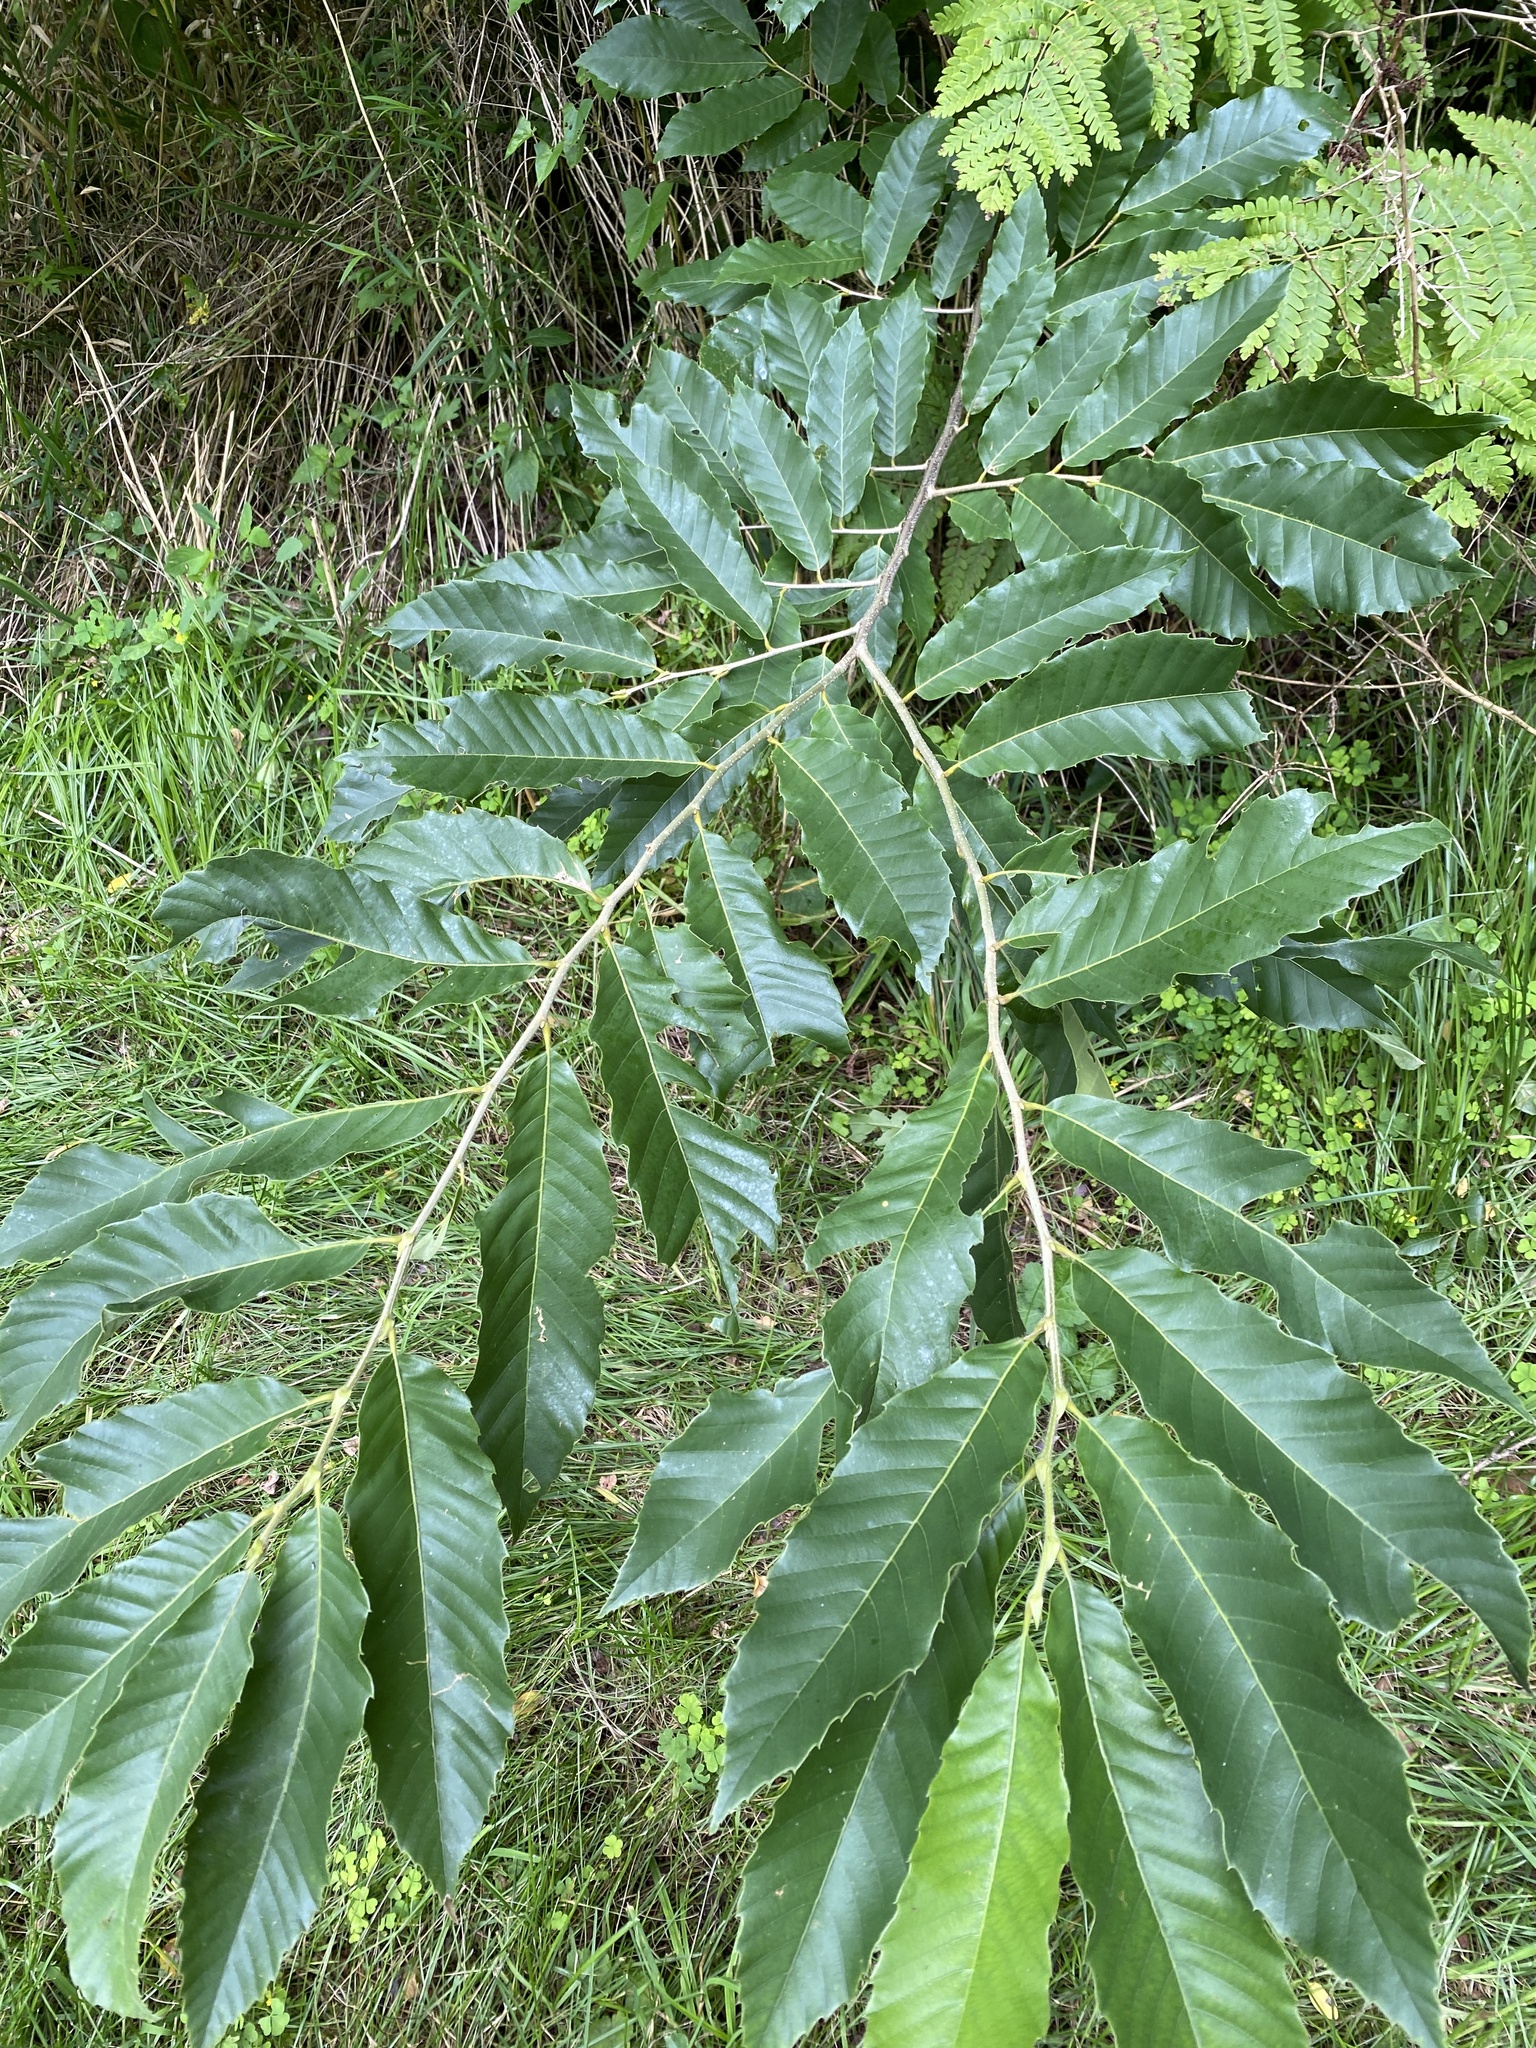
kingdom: Plantae
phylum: Tracheophyta
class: Magnoliopsida
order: Fagales
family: Fagaceae
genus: Castanea
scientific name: Castanea mollissima
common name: Chinese chestnut
